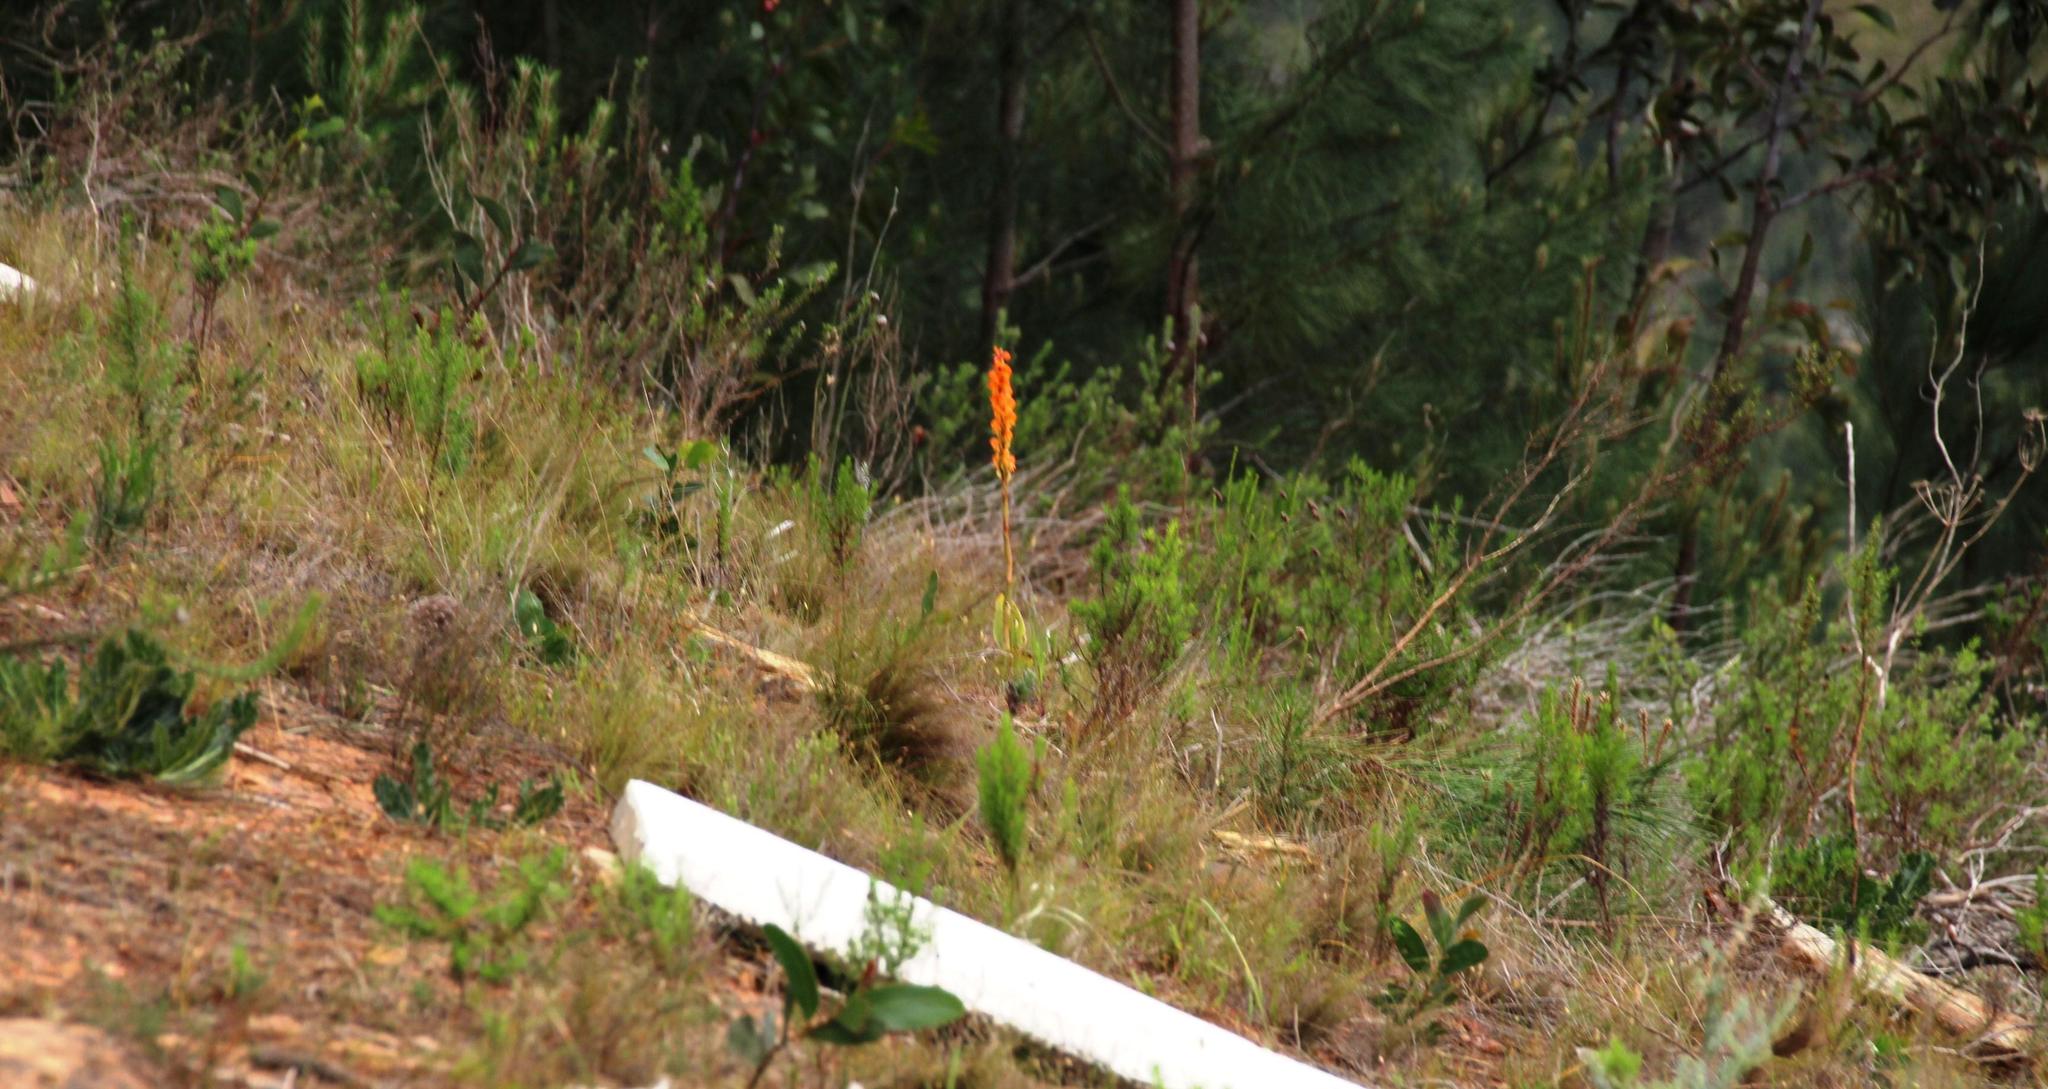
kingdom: Plantae
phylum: Tracheophyta
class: Liliopsida
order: Asparagales
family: Orchidaceae
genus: Satyrium
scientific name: Satyrium coriifolium
